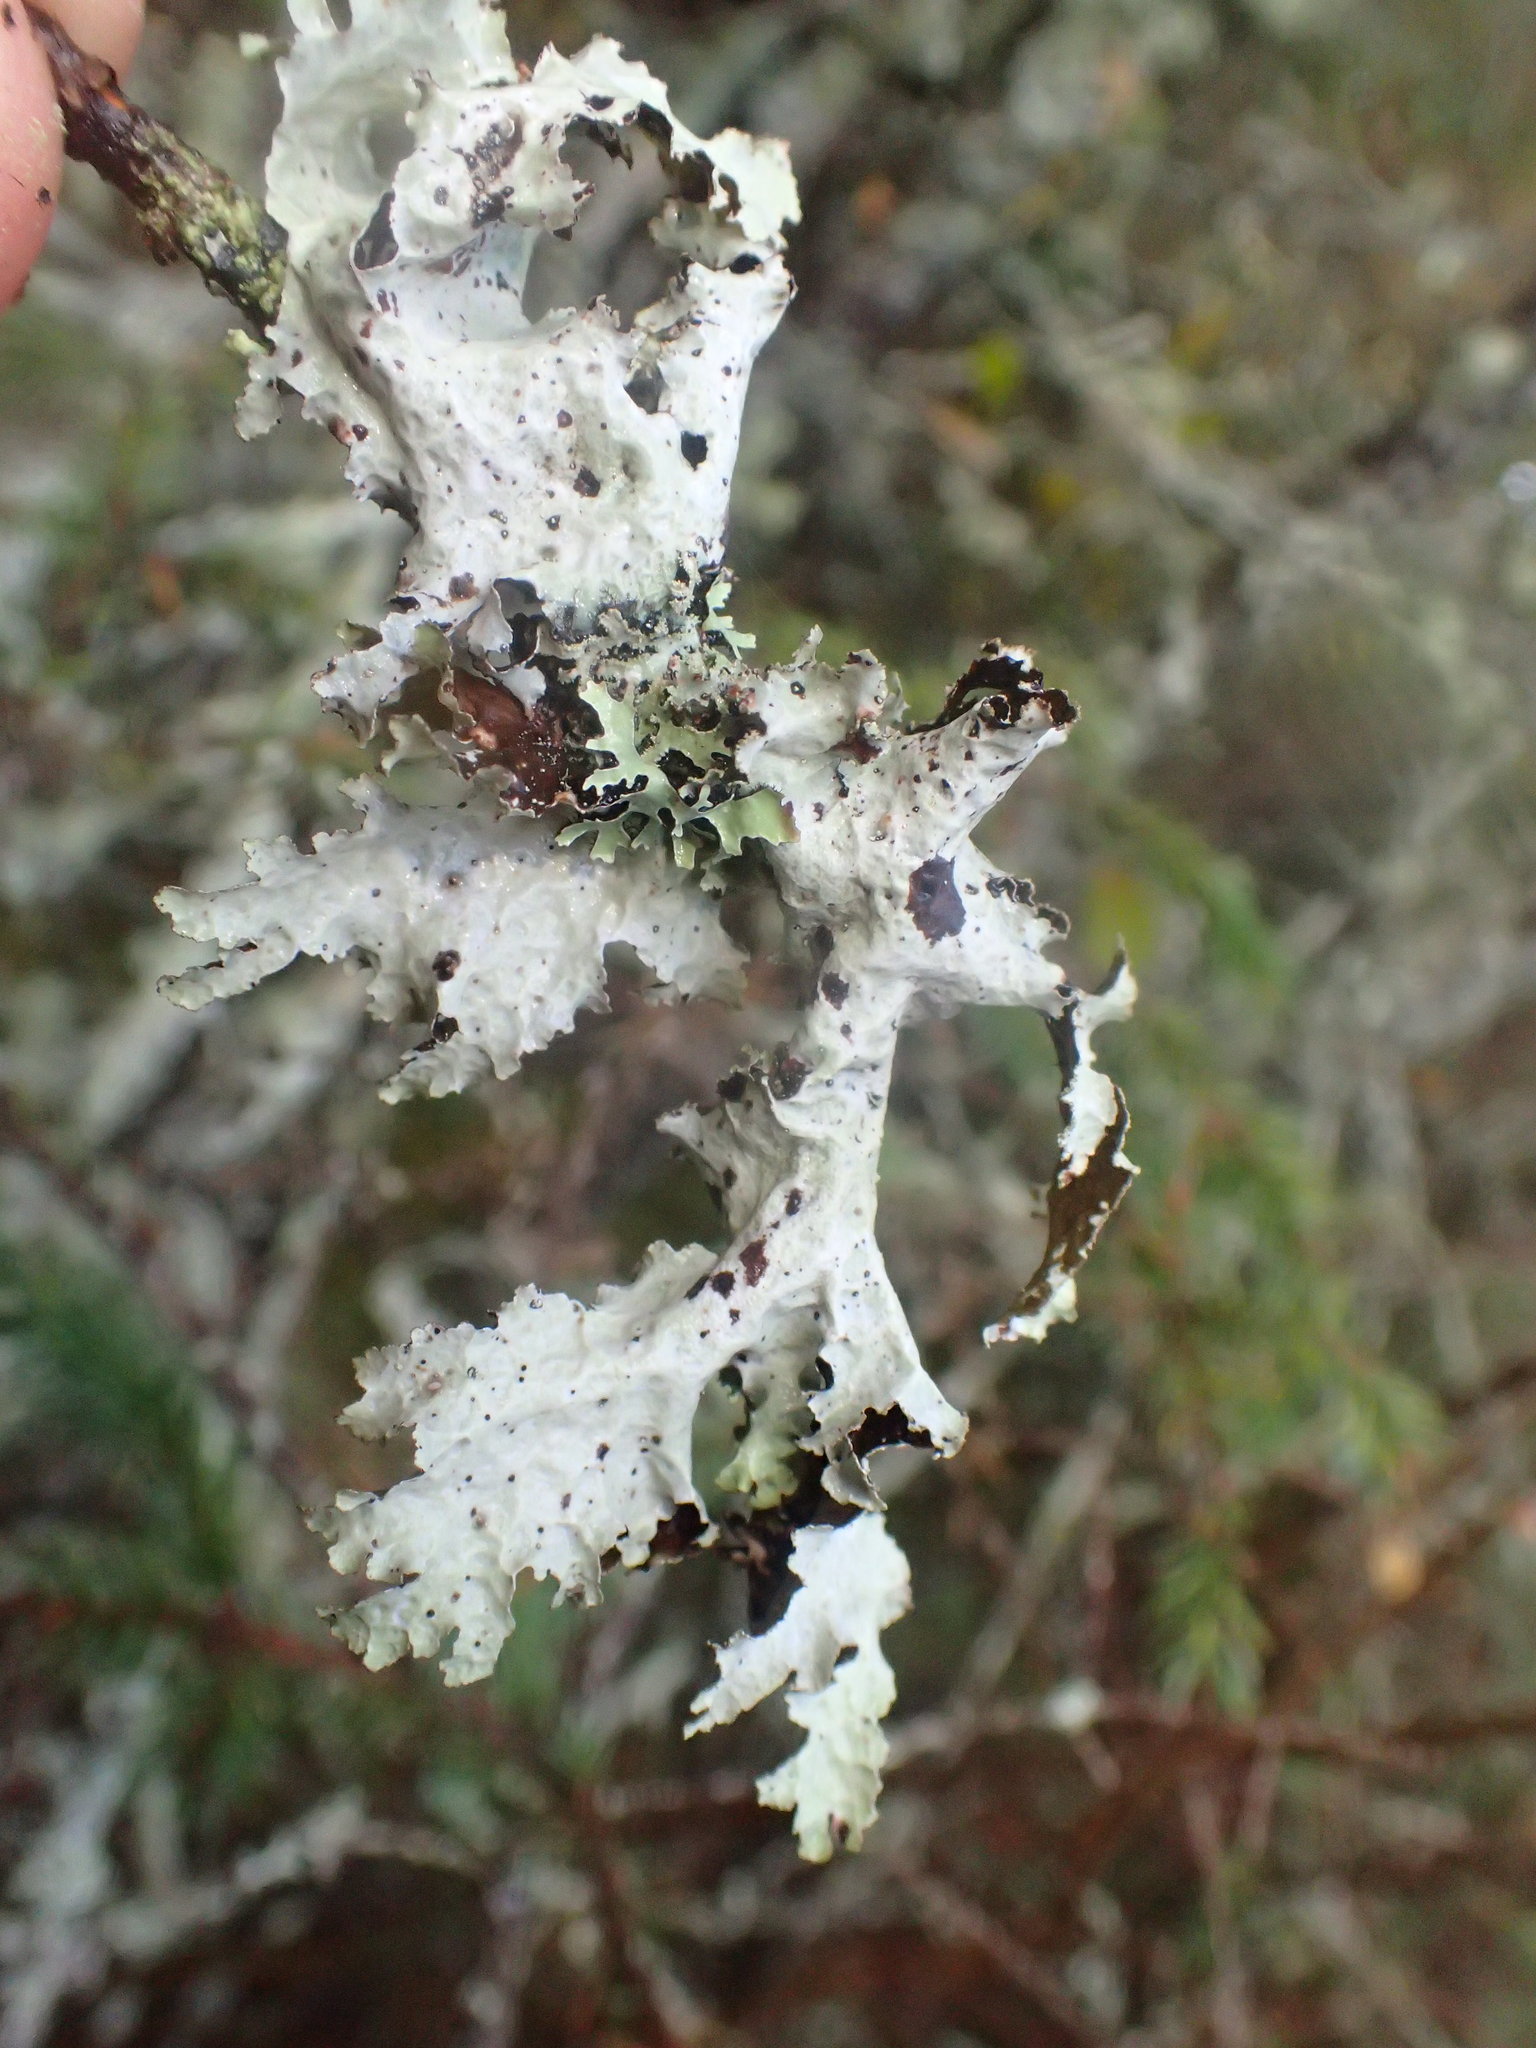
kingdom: Fungi
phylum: Ascomycota
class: Lecanoromycetes
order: Lecanorales
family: Parmeliaceae
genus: Platismatia
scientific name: Platismatia glauca
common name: Varied rag lichen
